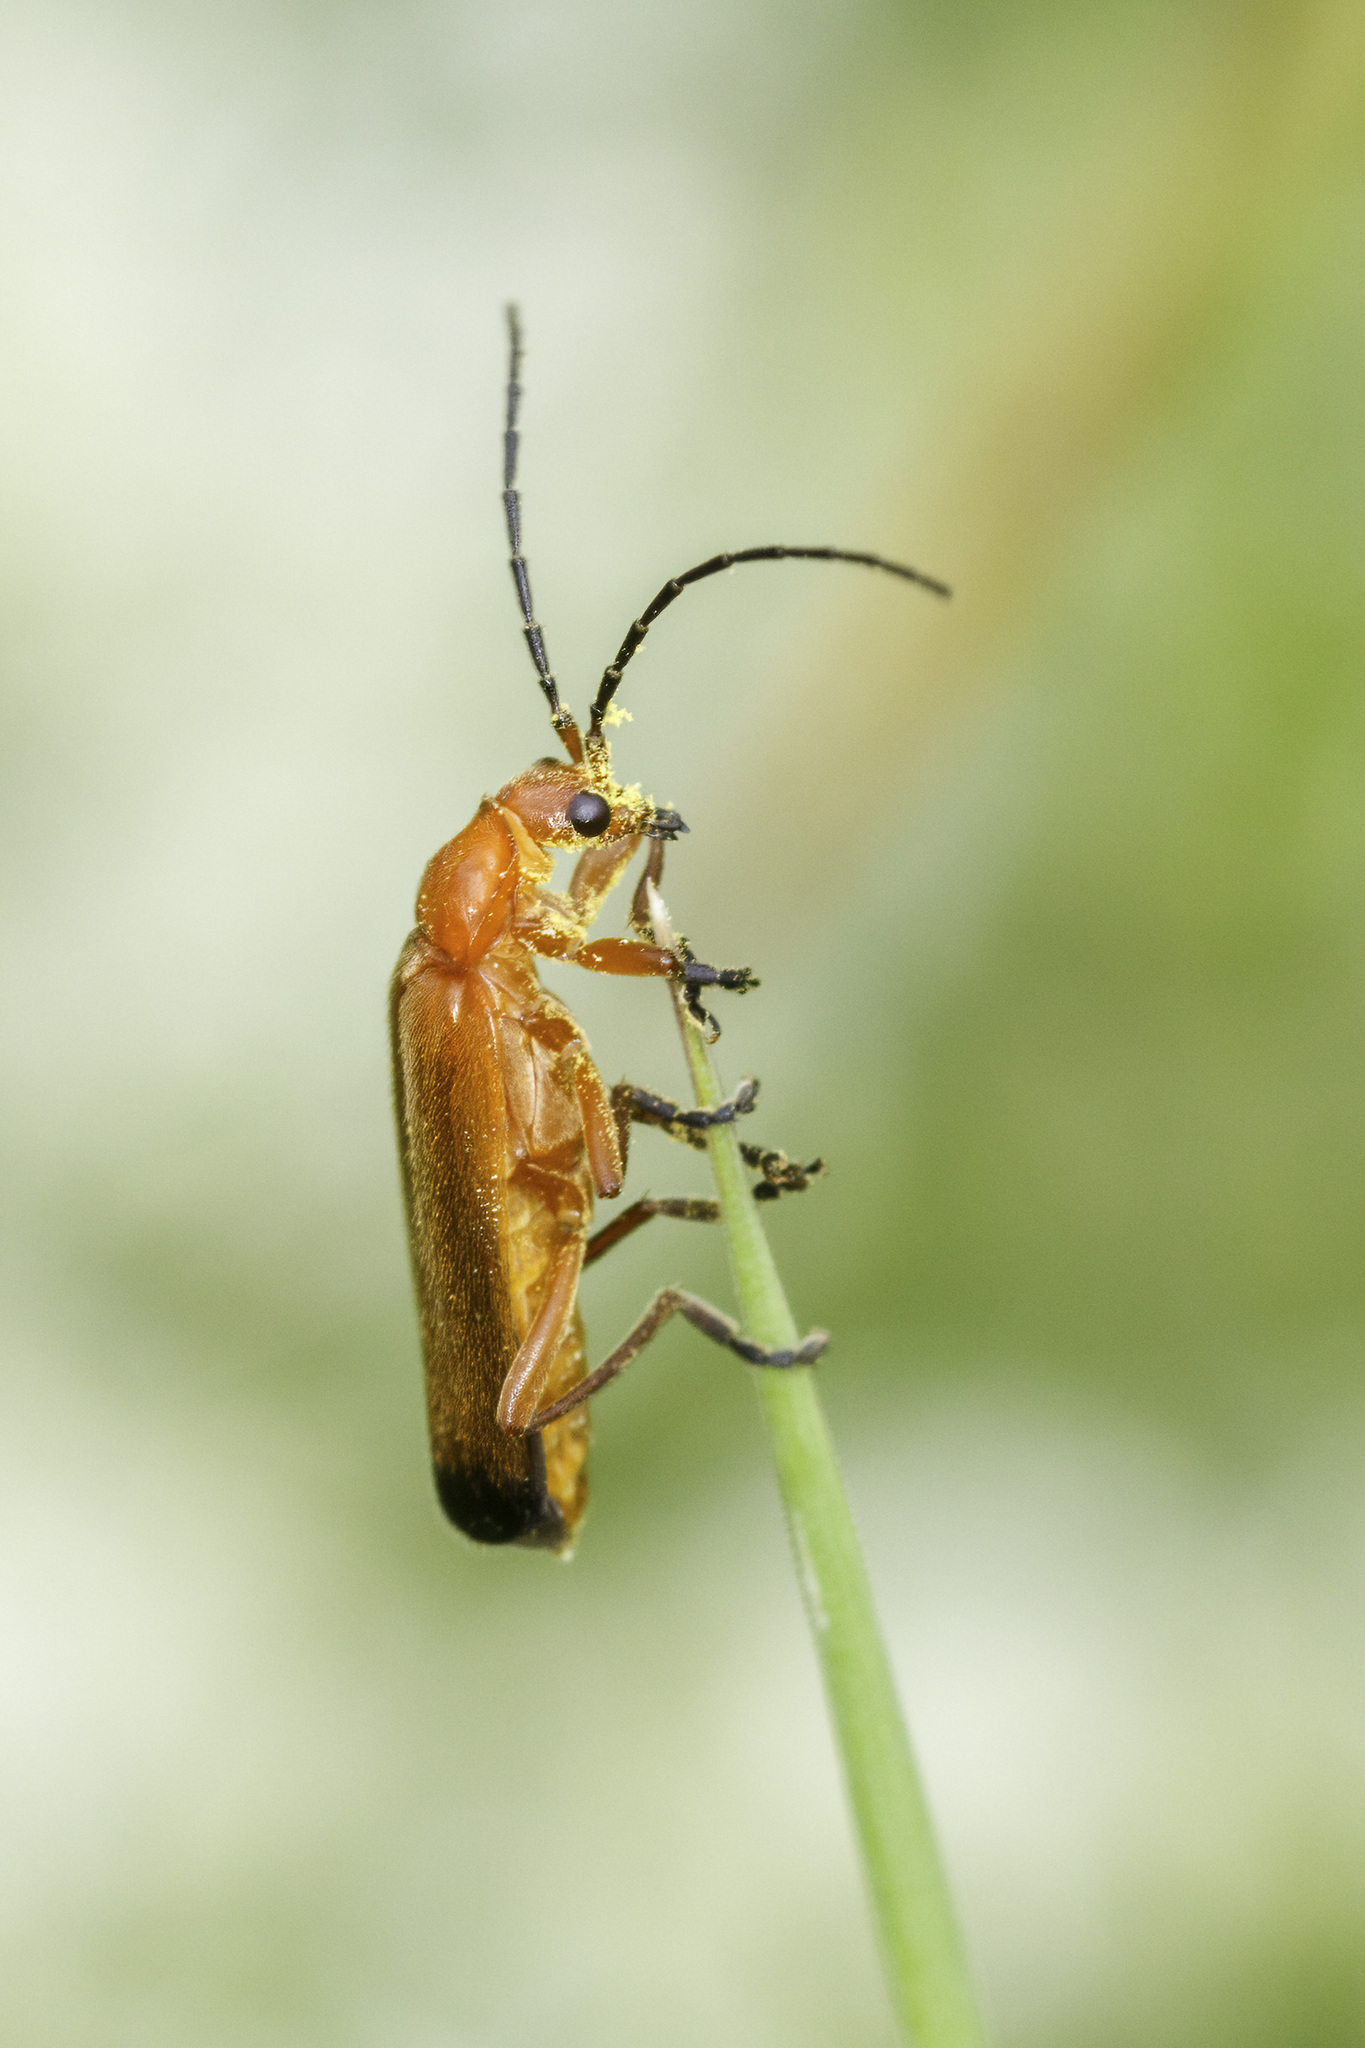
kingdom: Animalia
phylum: Arthropoda
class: Insecta
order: Coleoptera
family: Cantharidae
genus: Rhagonycha
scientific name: Rhagonycha fulva
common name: Common red soldier beetle
